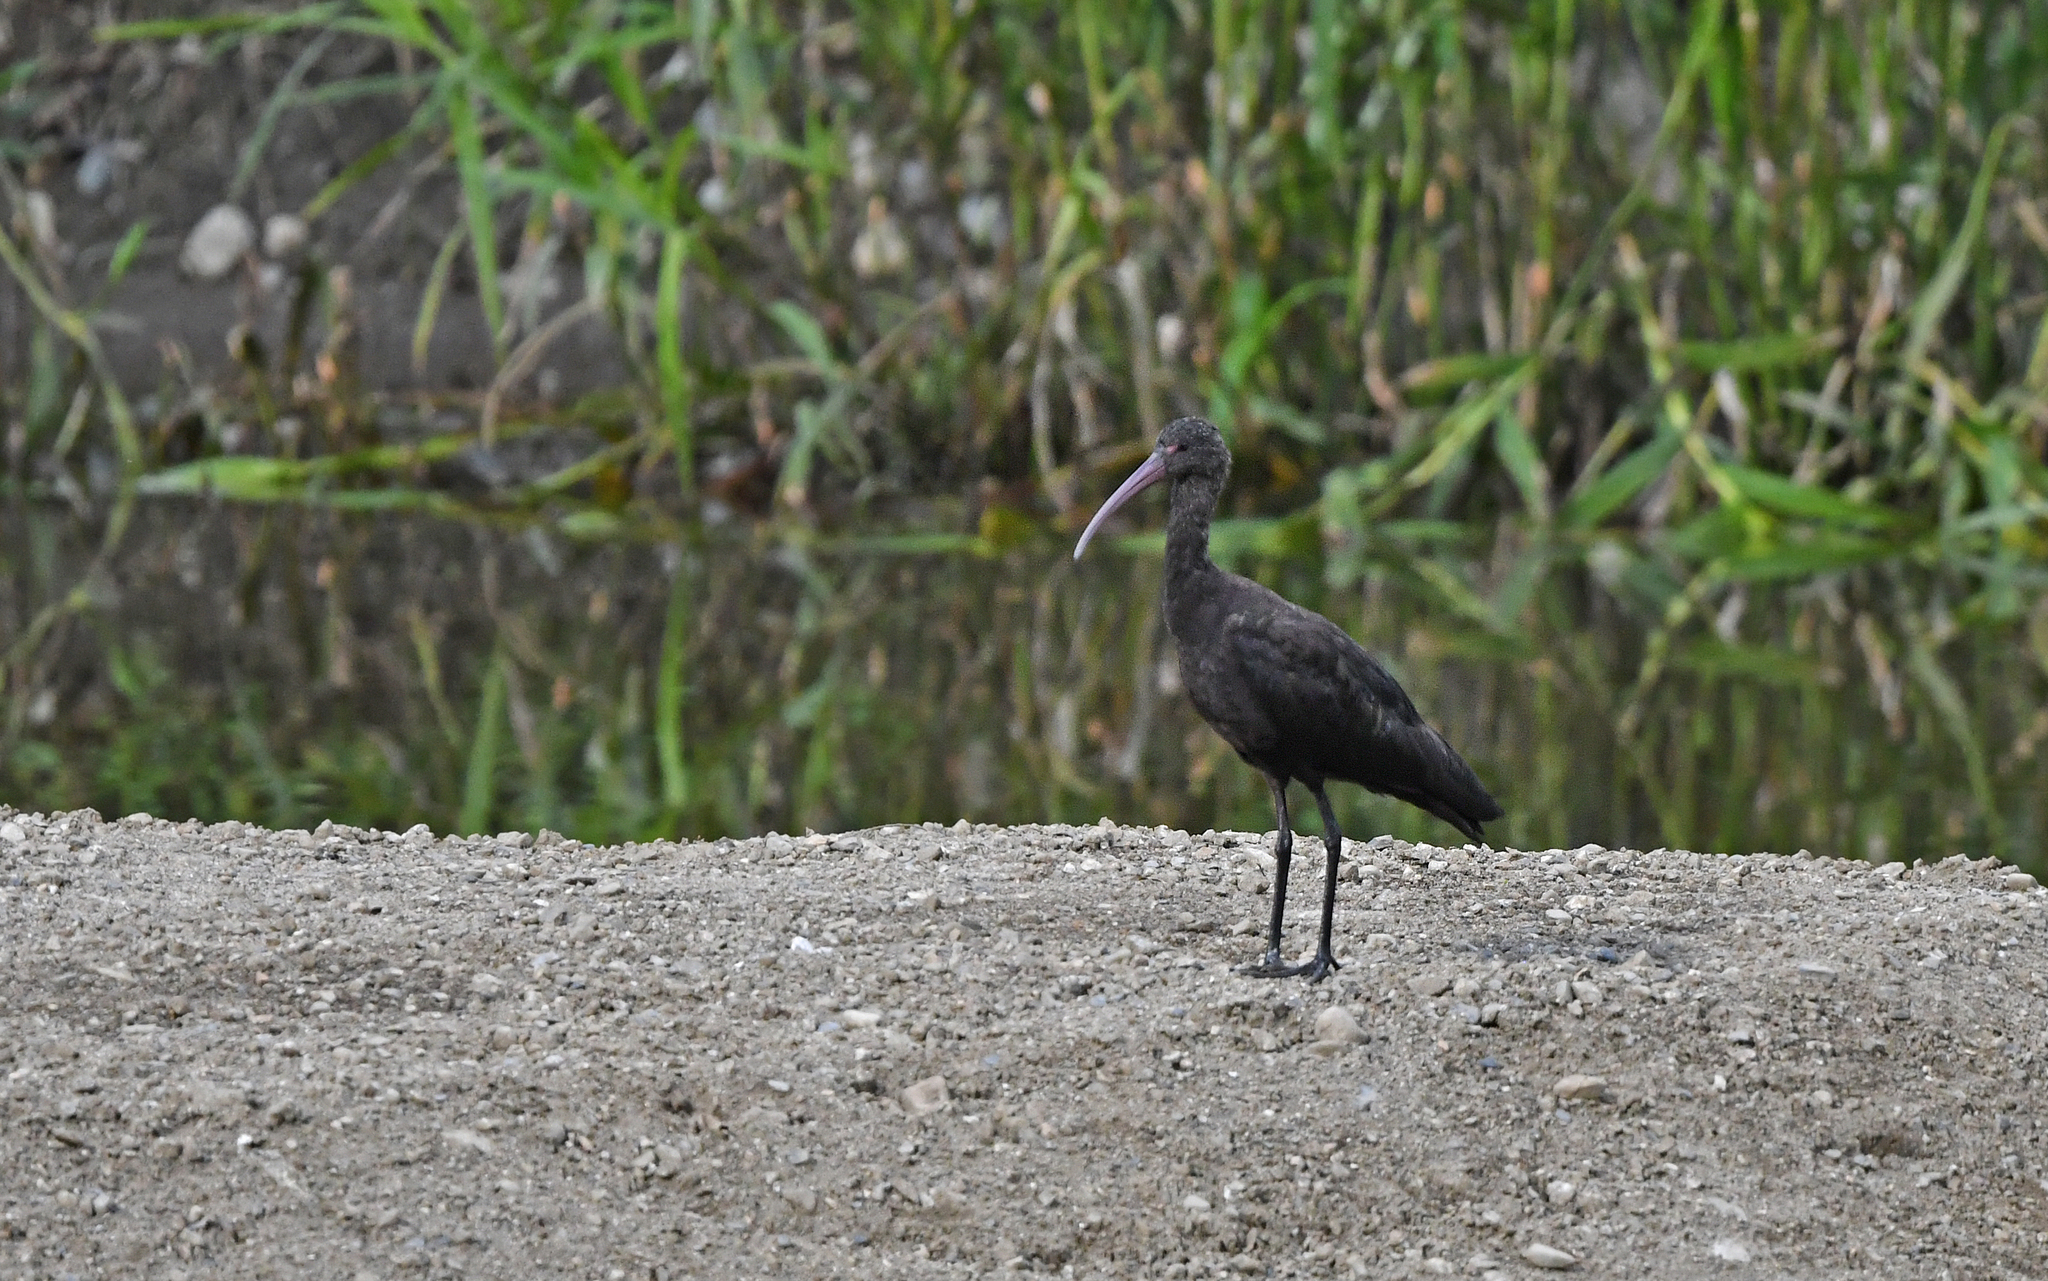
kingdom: Animalia
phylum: Chordata
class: Aves
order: Pelecaniformes
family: Threskiornithidae
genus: Plegadis
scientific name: Plegadis ridgwayi
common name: Puna ibis
